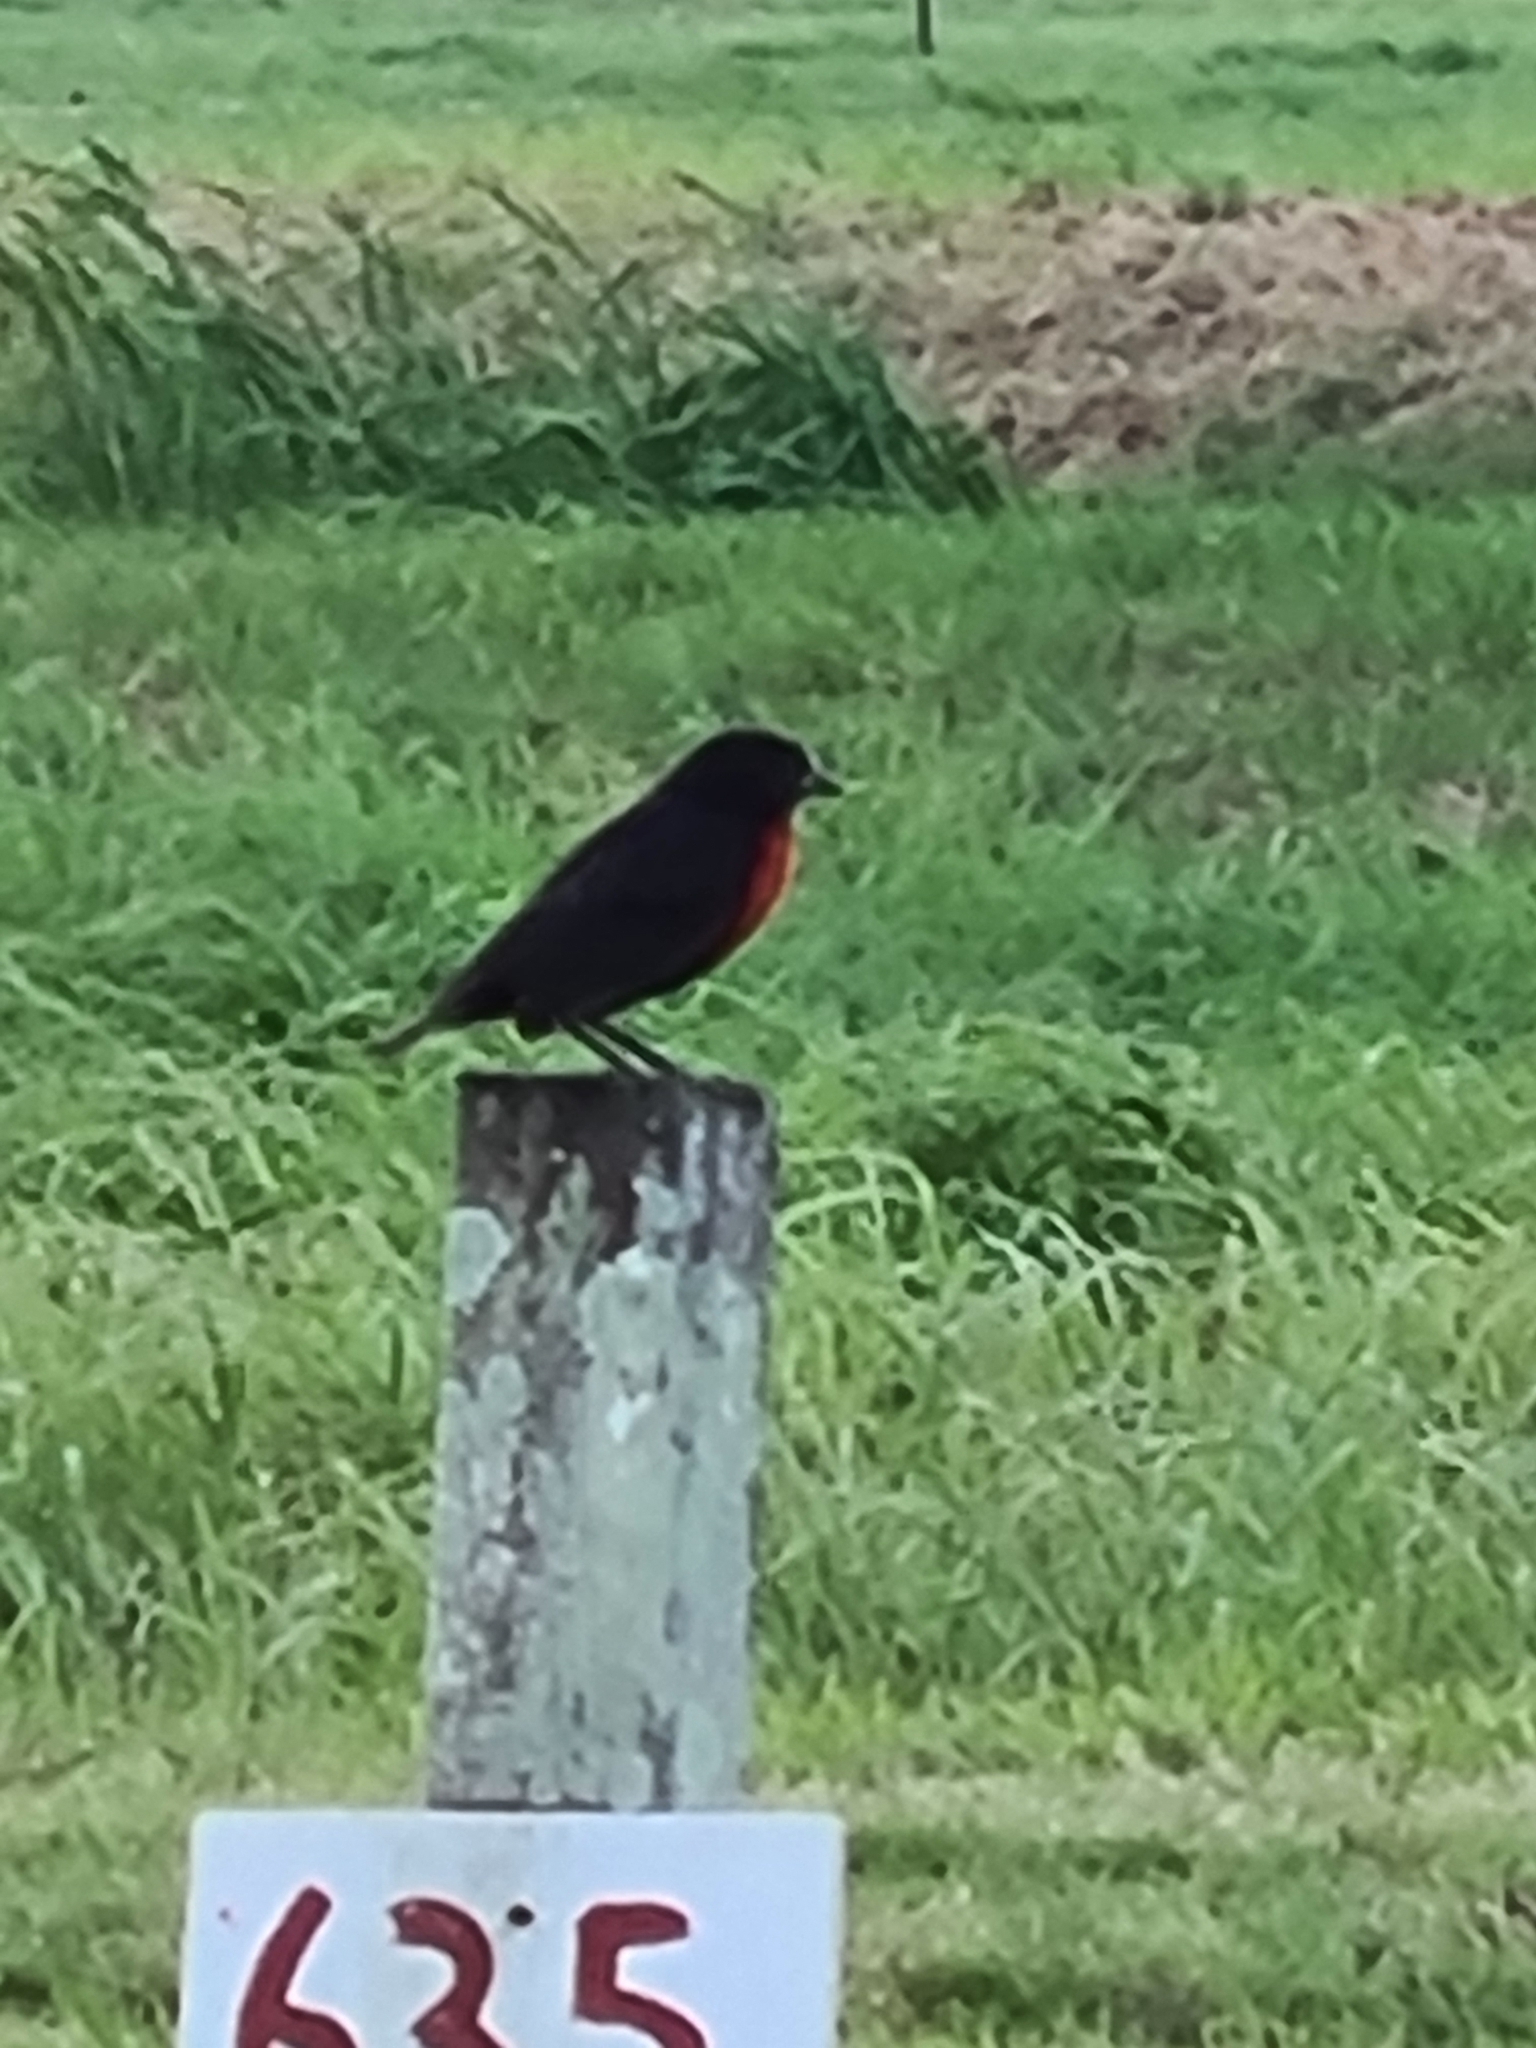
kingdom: Animalia
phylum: Chordata
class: Aves
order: Passeriformes
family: Icteridae
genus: Sturnella
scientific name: Sturnella militaris
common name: Red-breasted blackbird
